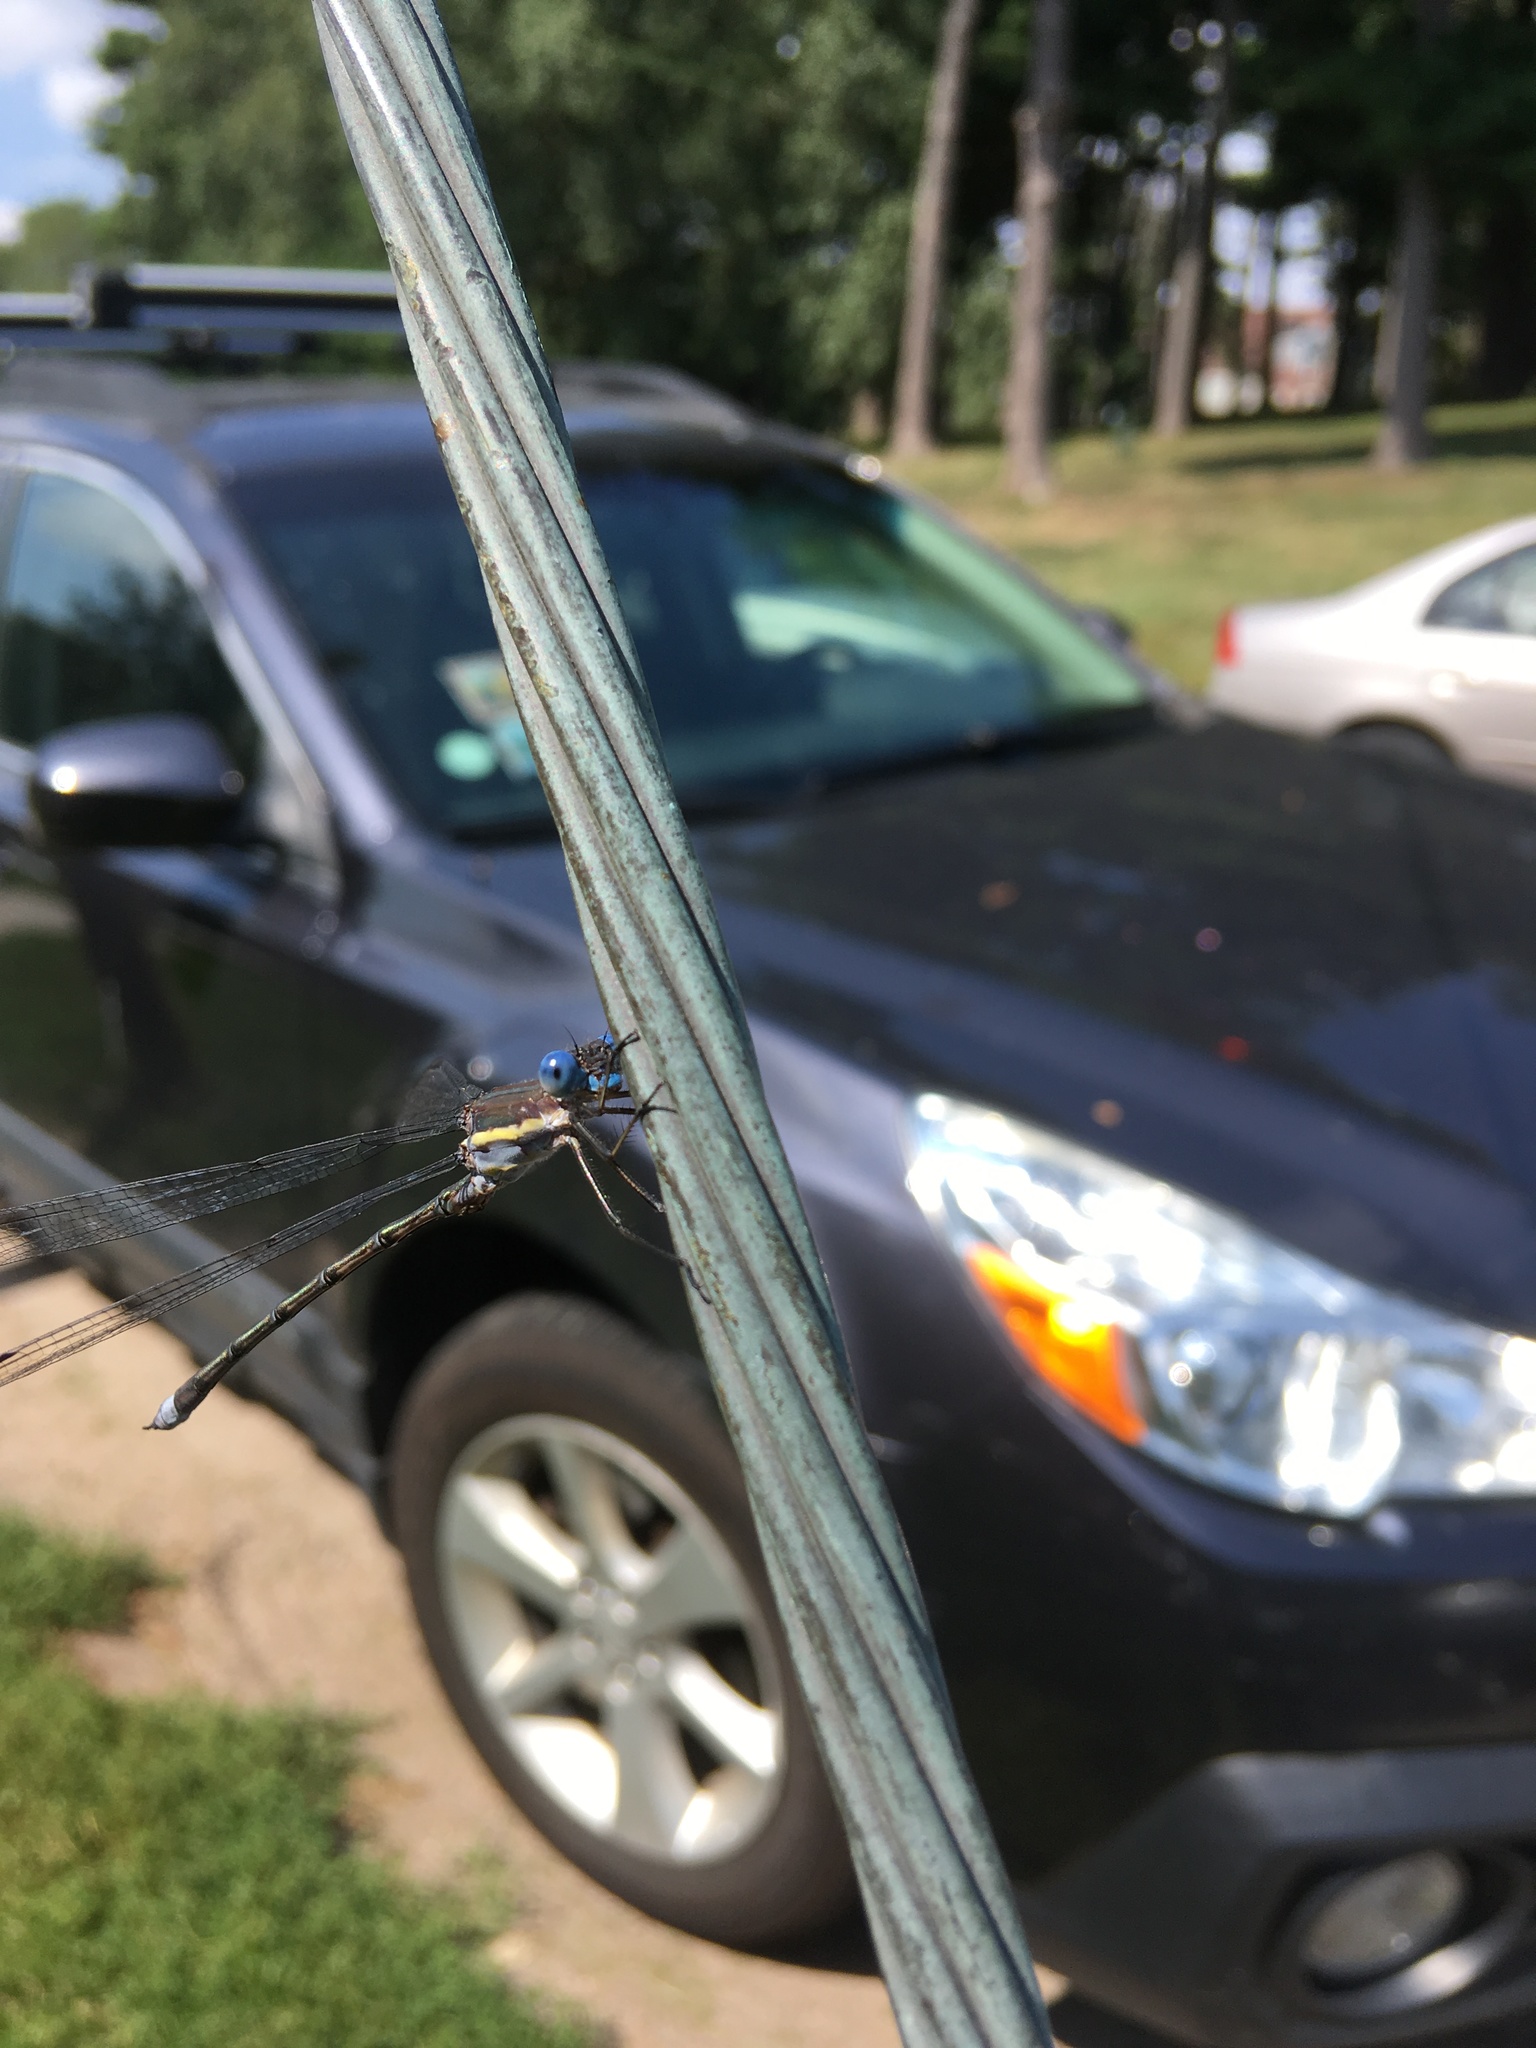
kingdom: Animalia
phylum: Arthropoda
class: Insecta
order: Odonata
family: Lestidae
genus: Archilestes
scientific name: Archilestes grandis
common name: Great spreadwing
